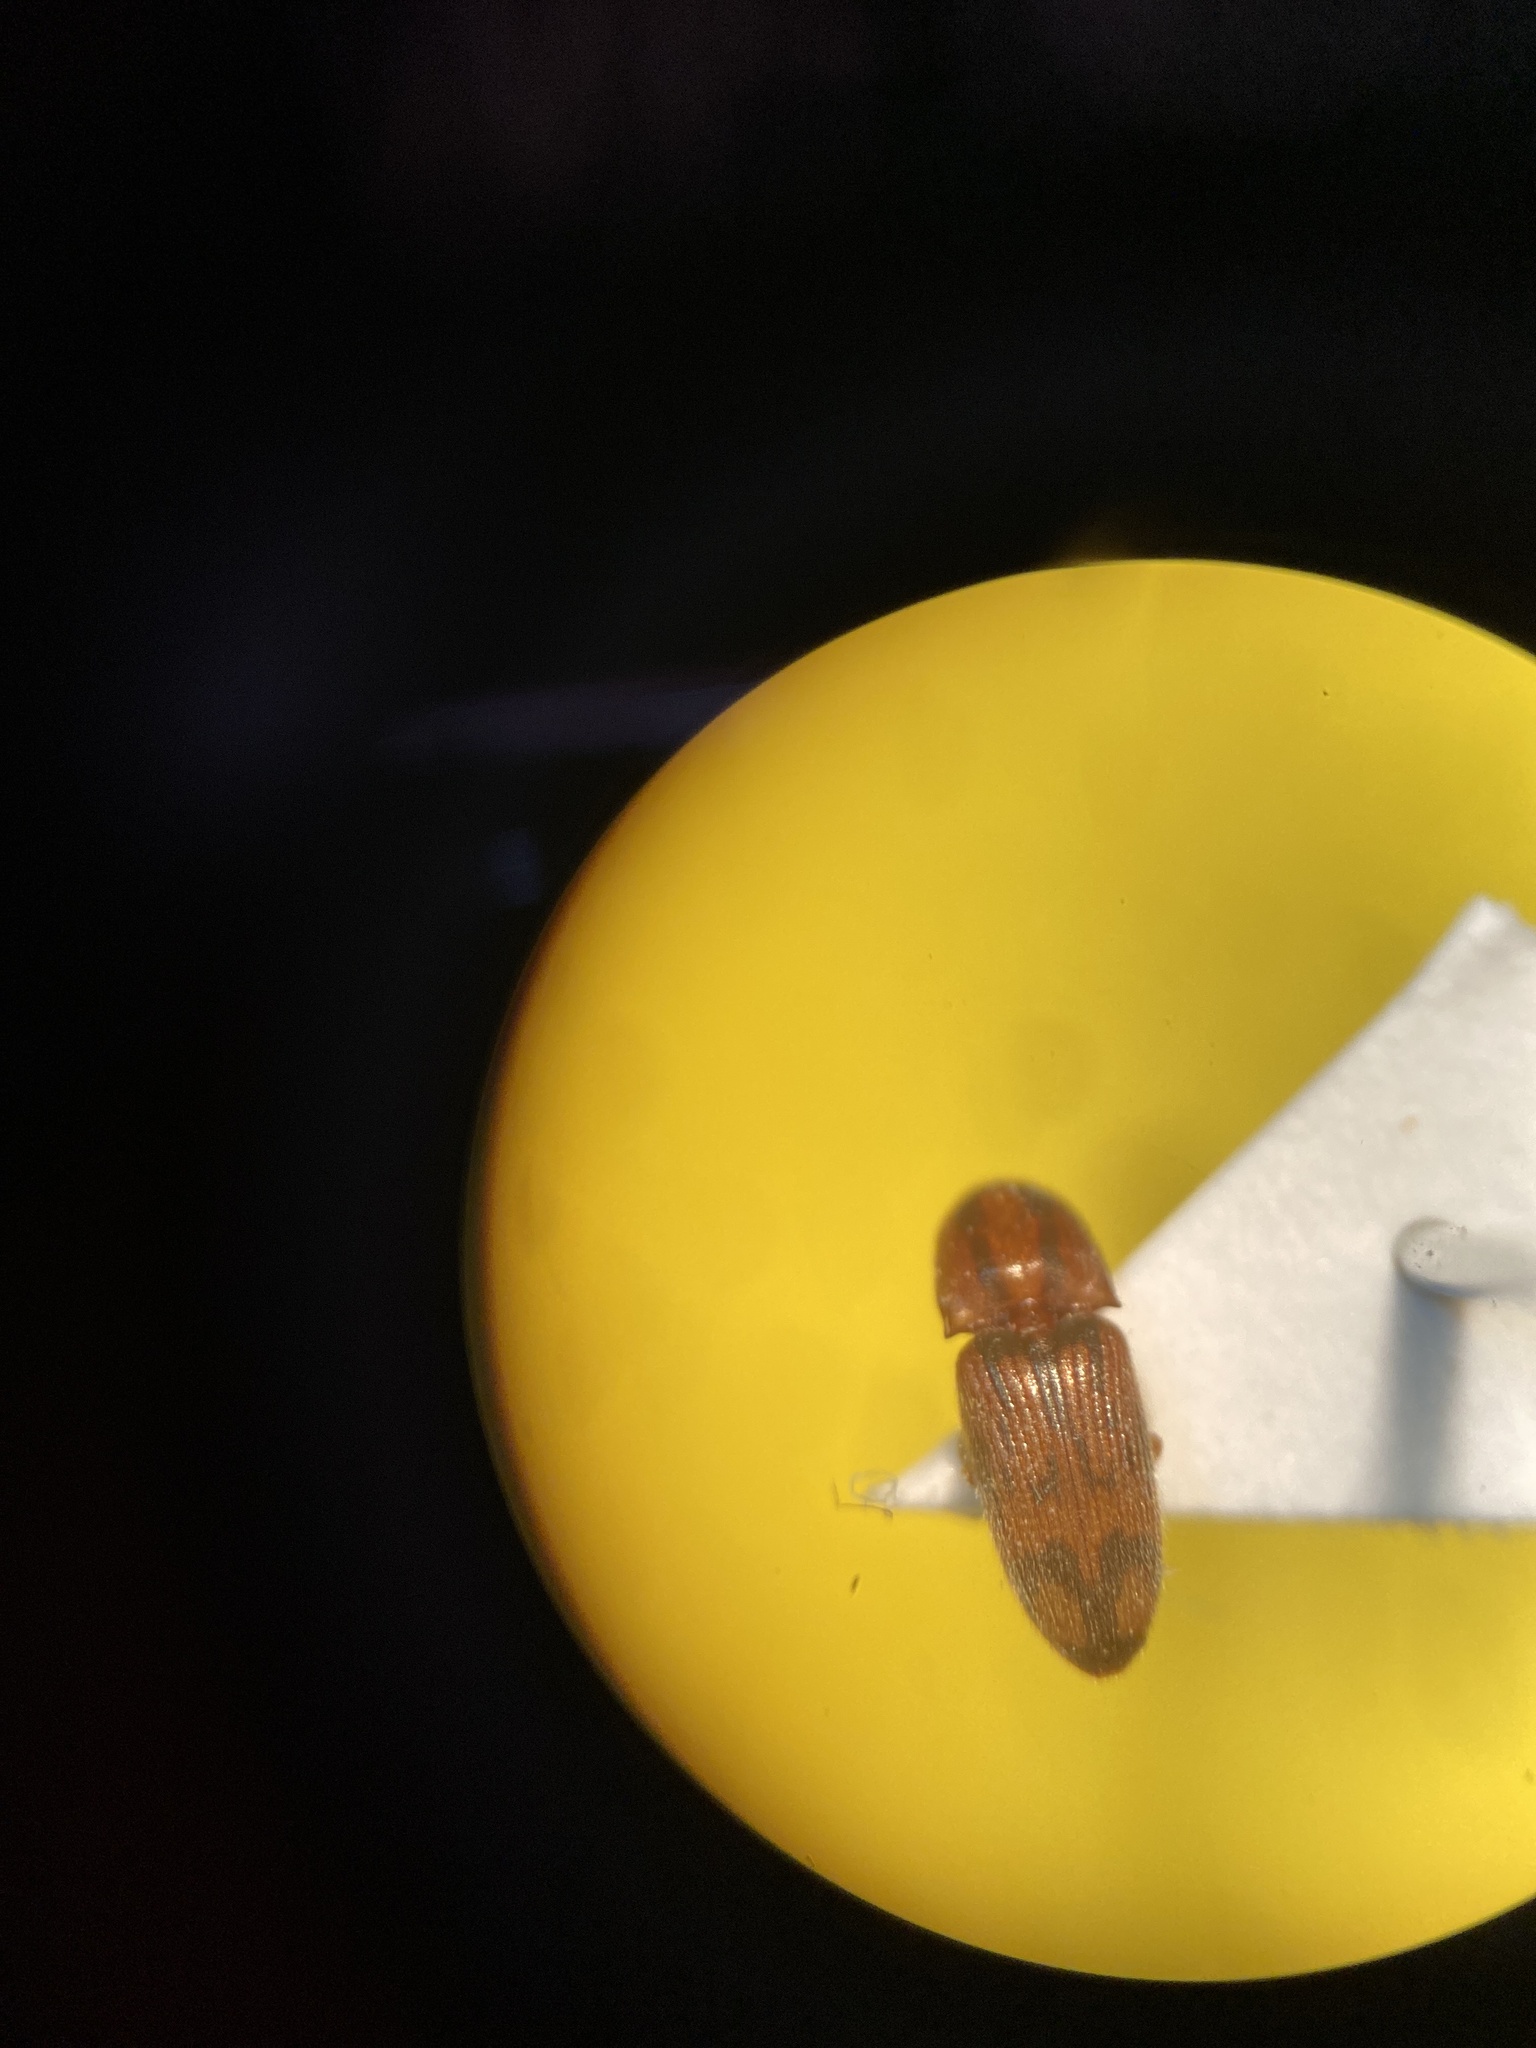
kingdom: Animalia
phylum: Arthropoda
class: Insecta
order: Coleoptera
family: Elateridae
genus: Monocrepidius
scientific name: Monocrepidius bellus
